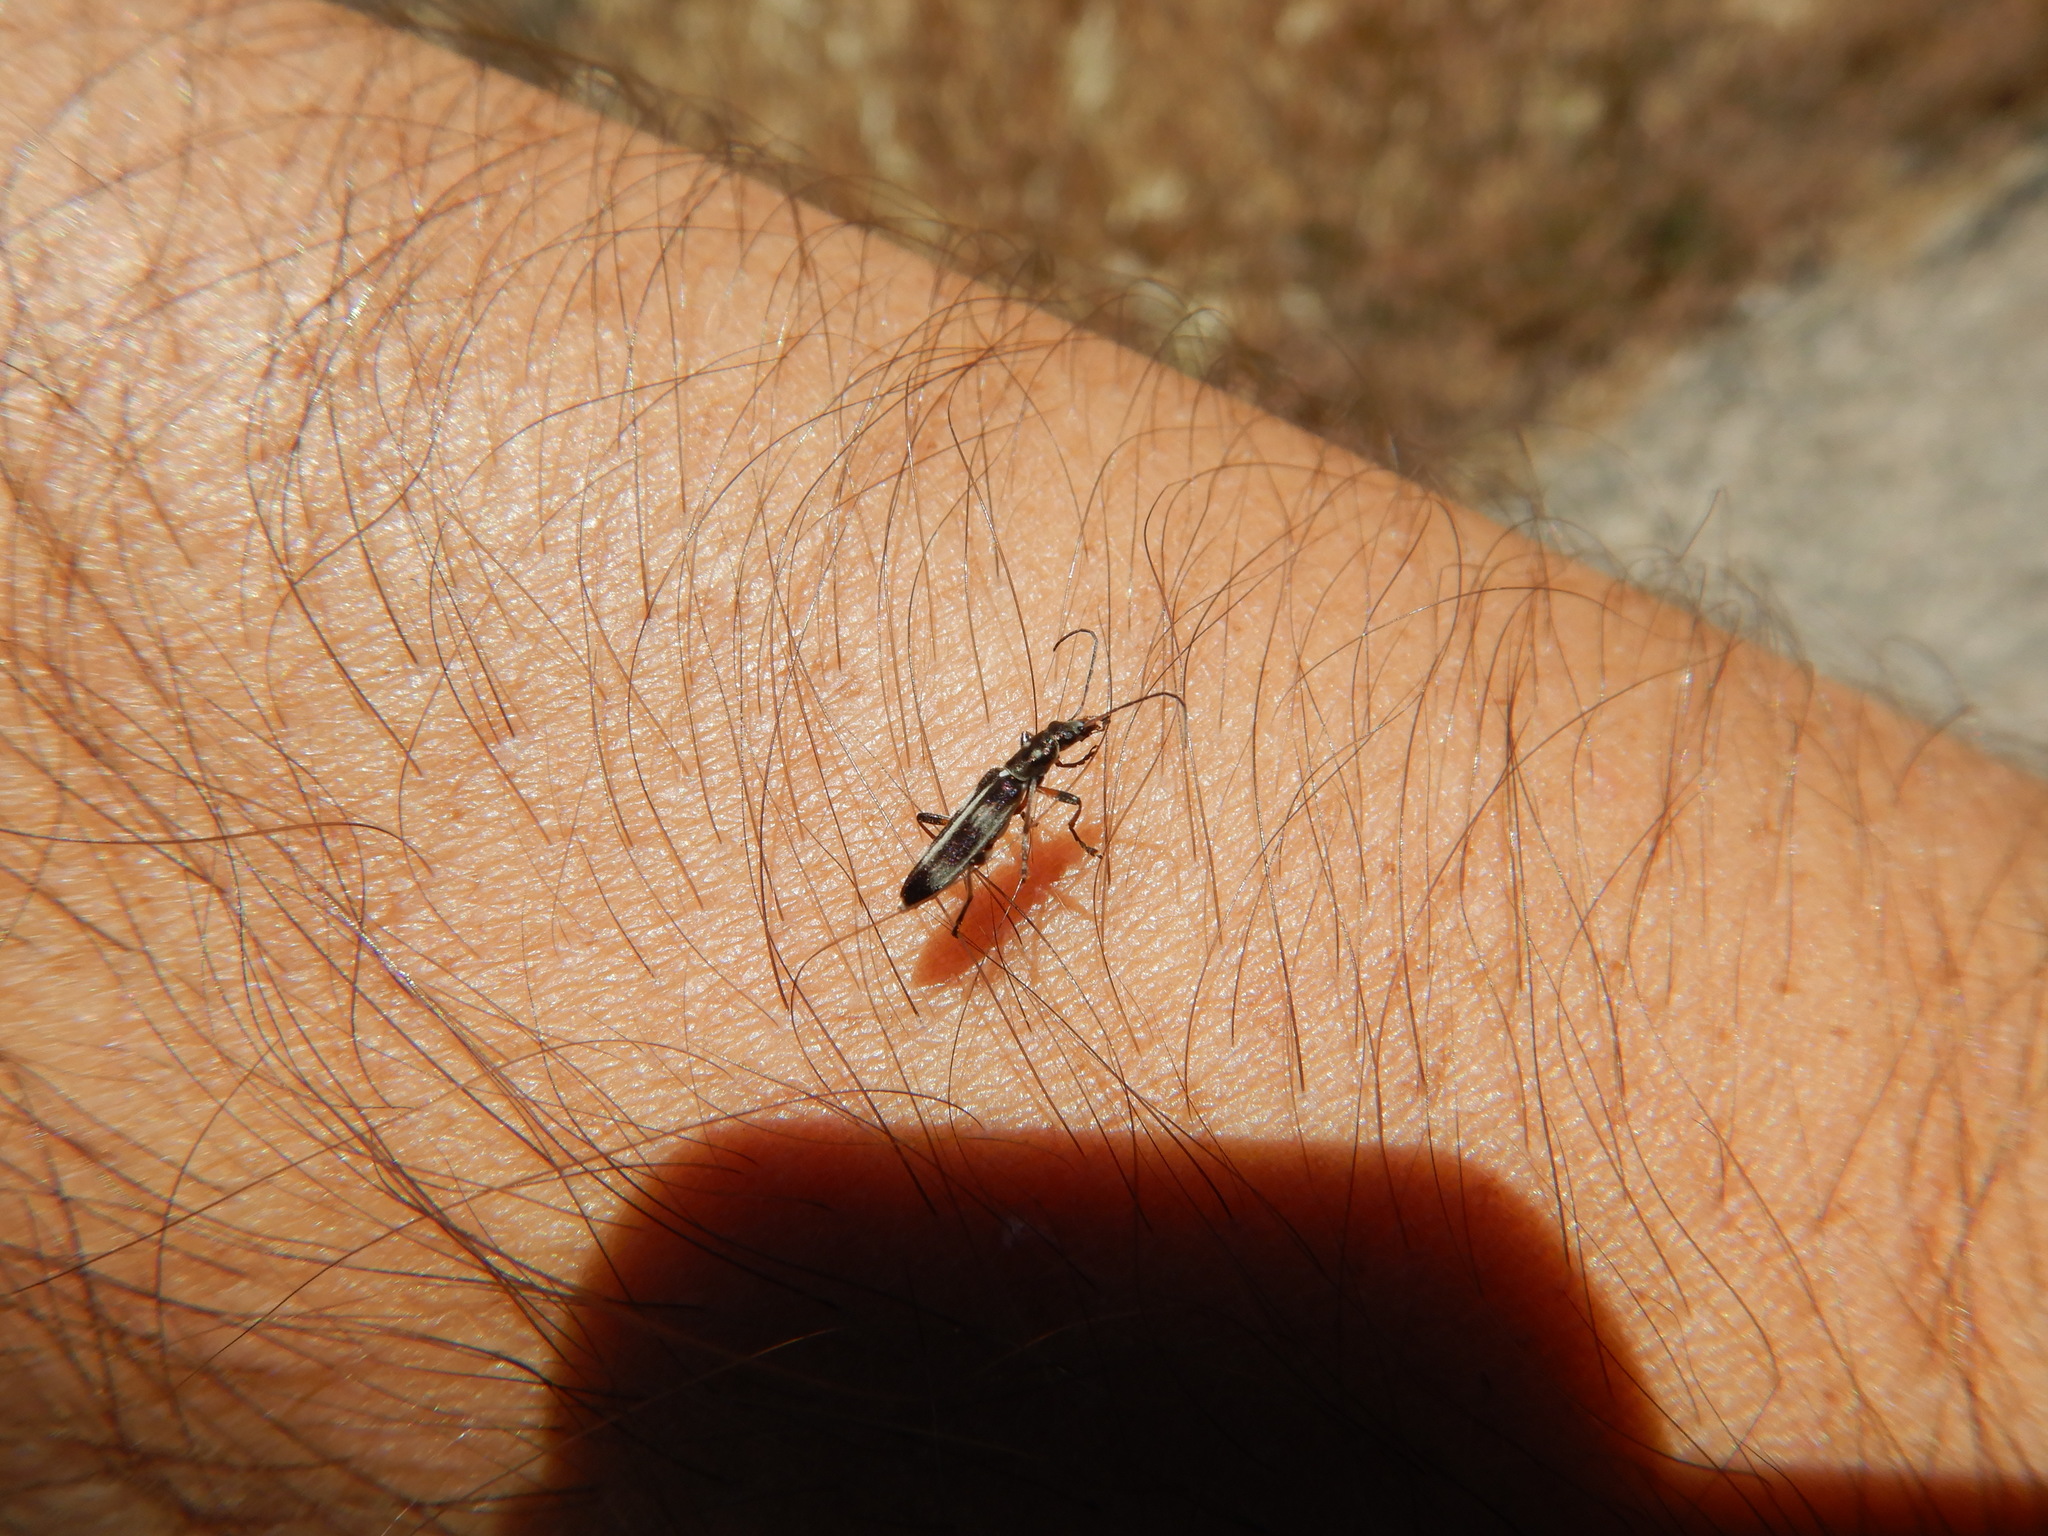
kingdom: Animalia
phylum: Arthropoda
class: Insecta
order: Coleoptera
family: Oedemeridae
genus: Chitona
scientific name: Chitona connexa
